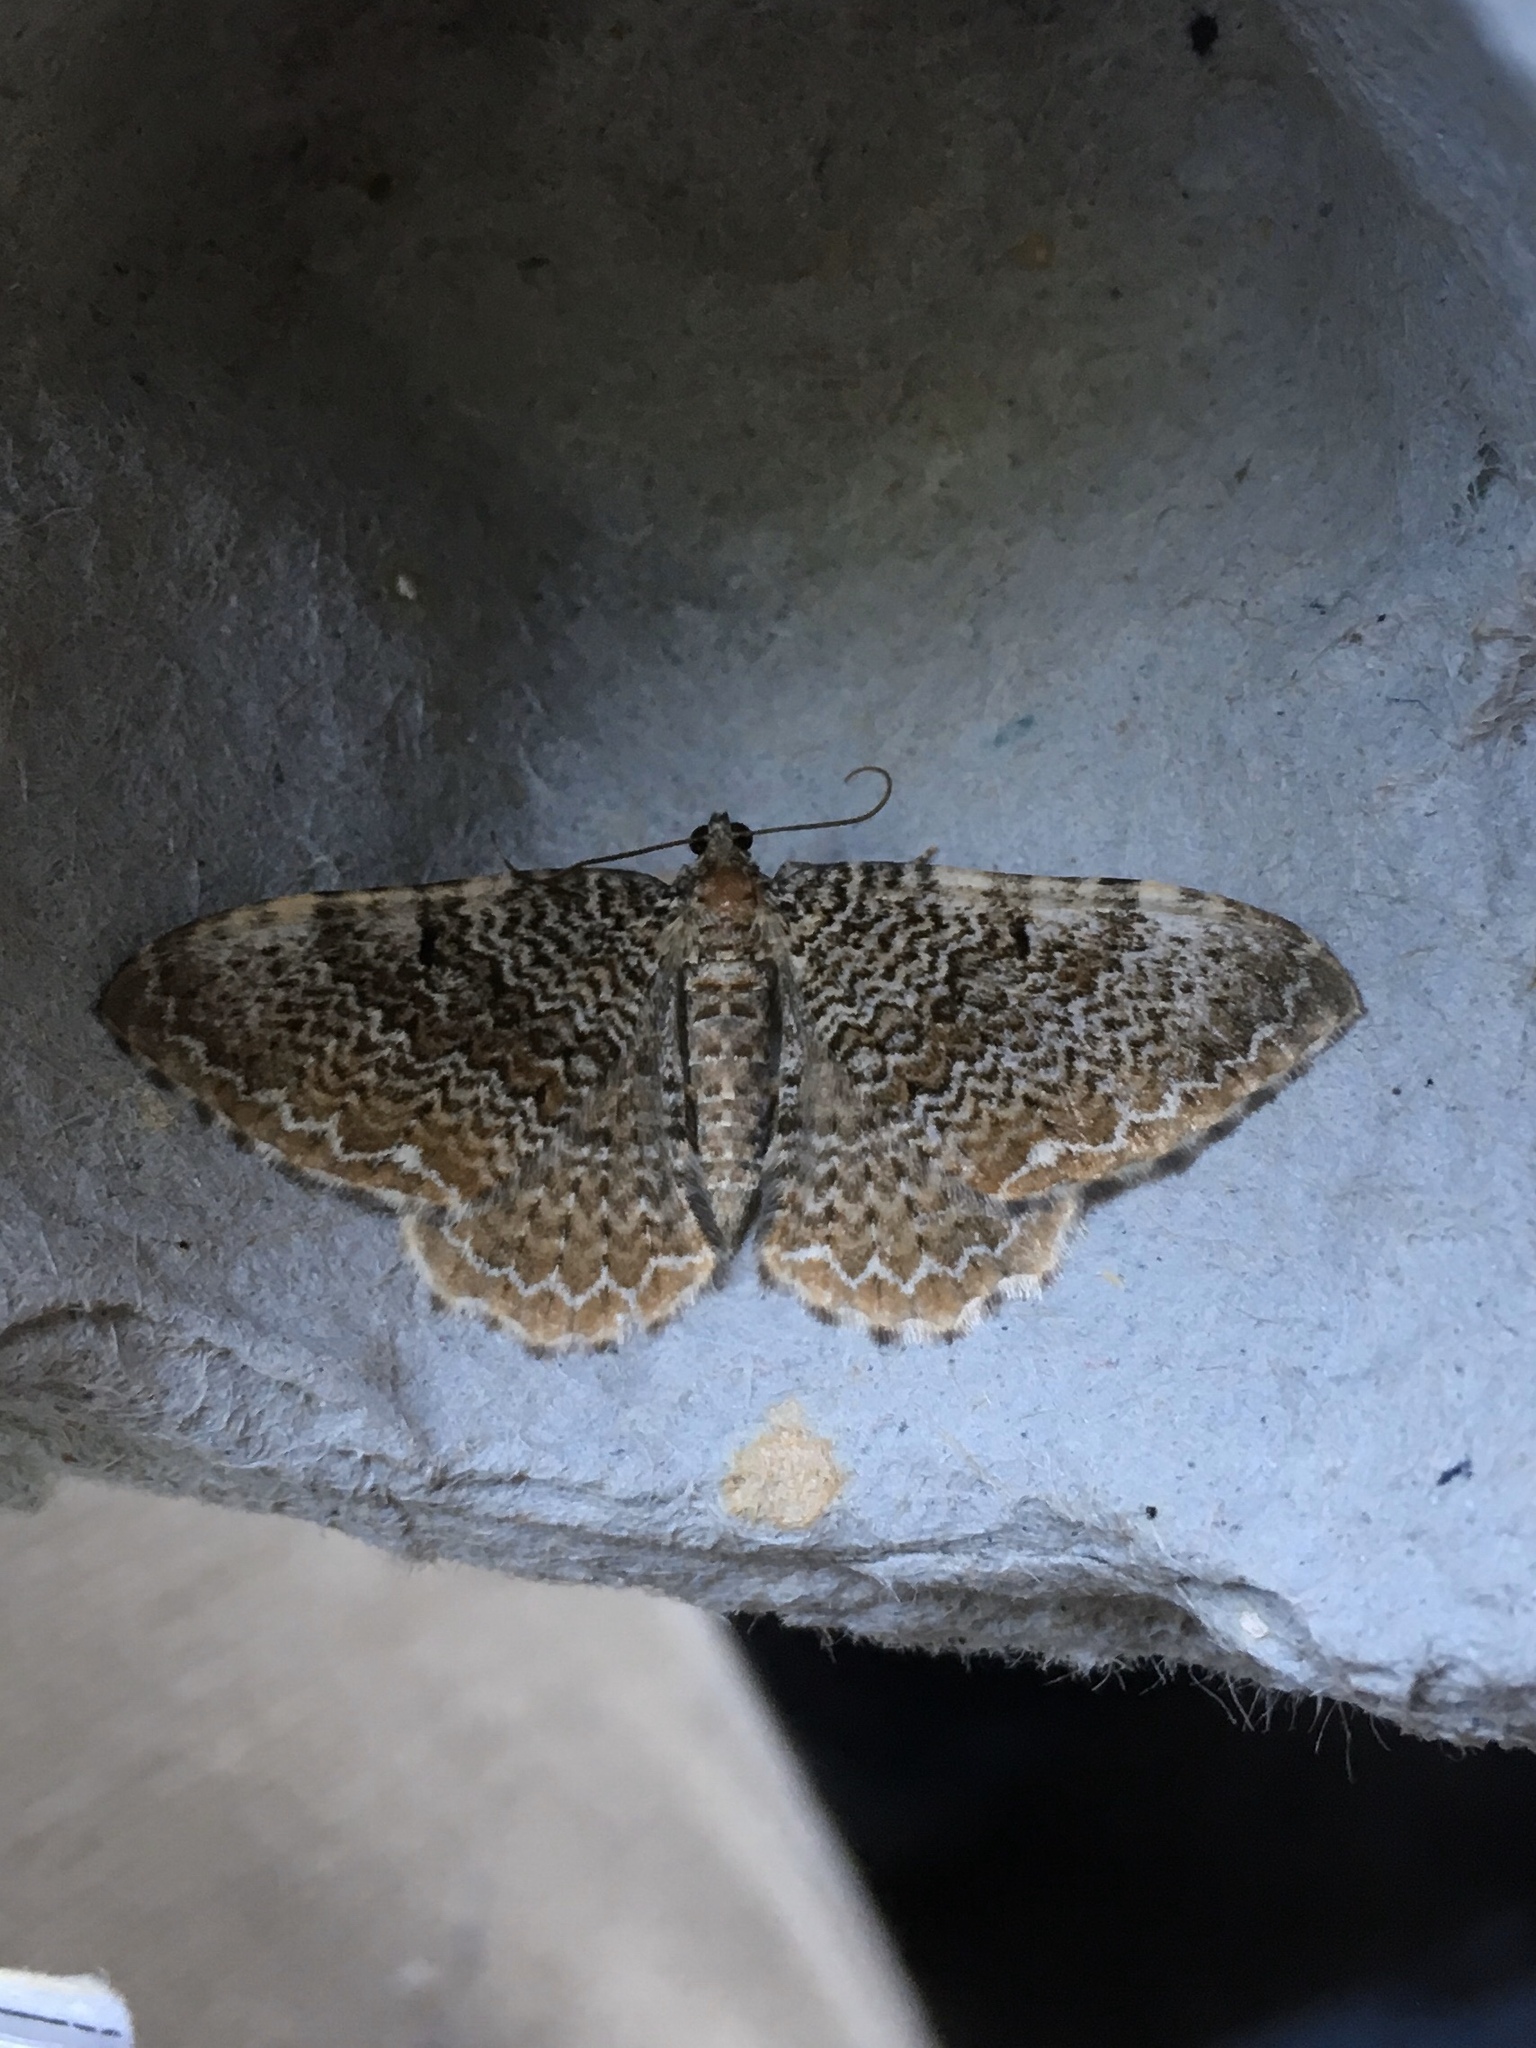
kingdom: Animalia
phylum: Arthropoda
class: Insecta
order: Lepidoptera
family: Geometridae
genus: Rheumaptera
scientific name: Rheumaptera
